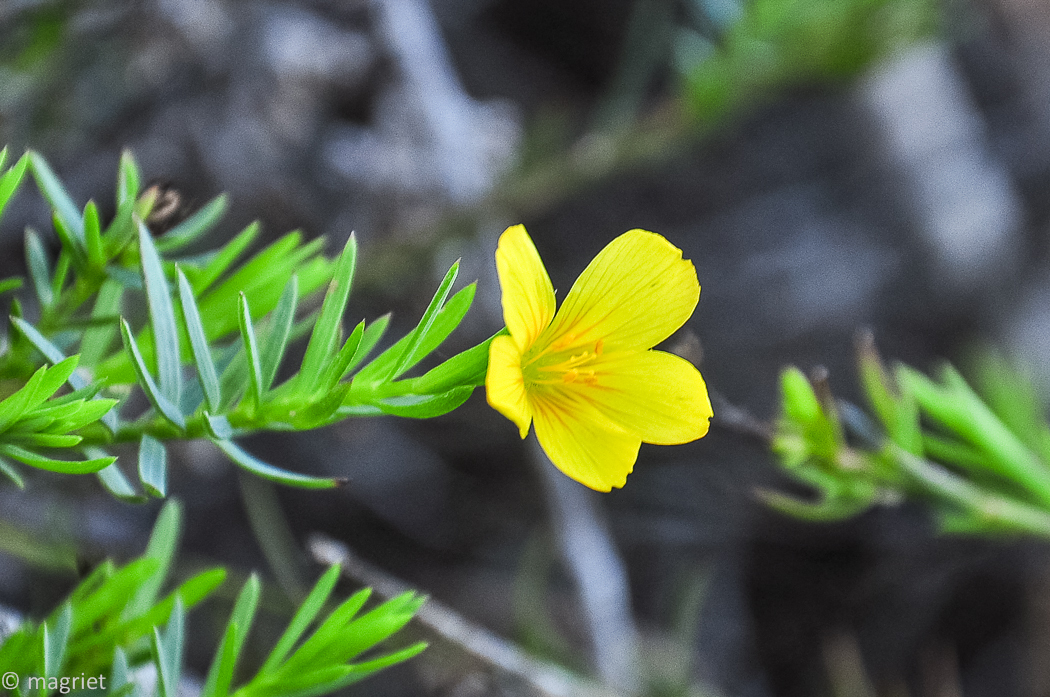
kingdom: Plantae
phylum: Tracheophyta
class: Magnoliopsida
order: Malpighiales
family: Linaceae
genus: Linum
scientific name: Linum africanum
